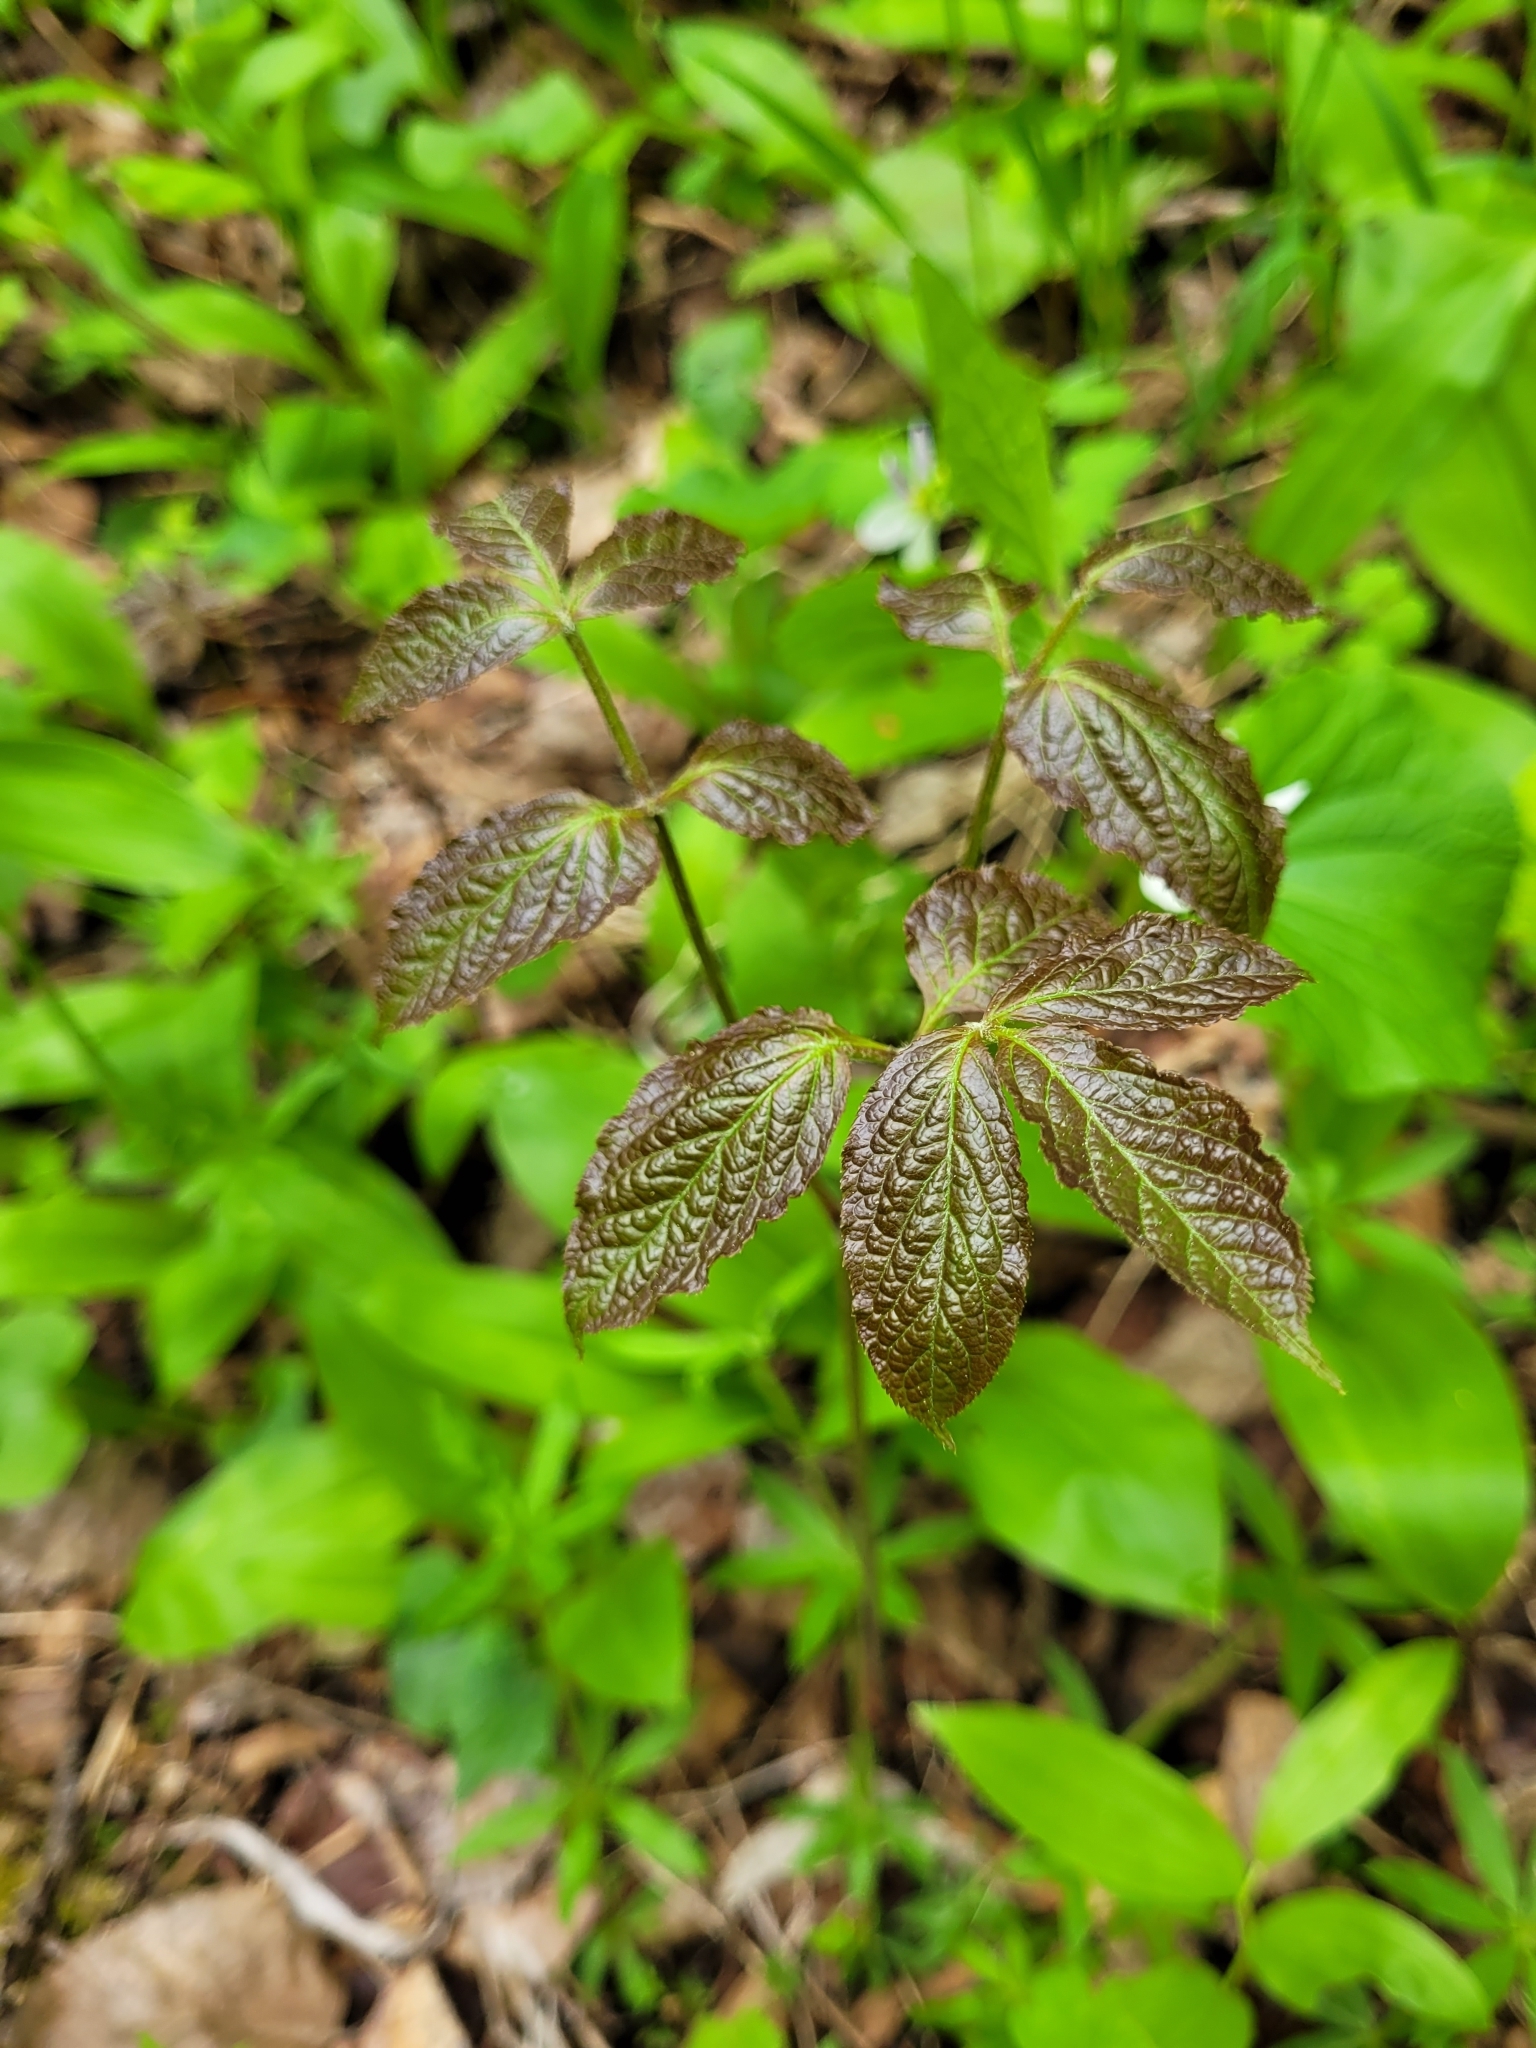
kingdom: Plantae
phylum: Tracheophyta
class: Magnoliopsida
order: Apiales
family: Araliaceae
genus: Aralia
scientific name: Aralia nudicaulis
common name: Wild sarsaparilla
